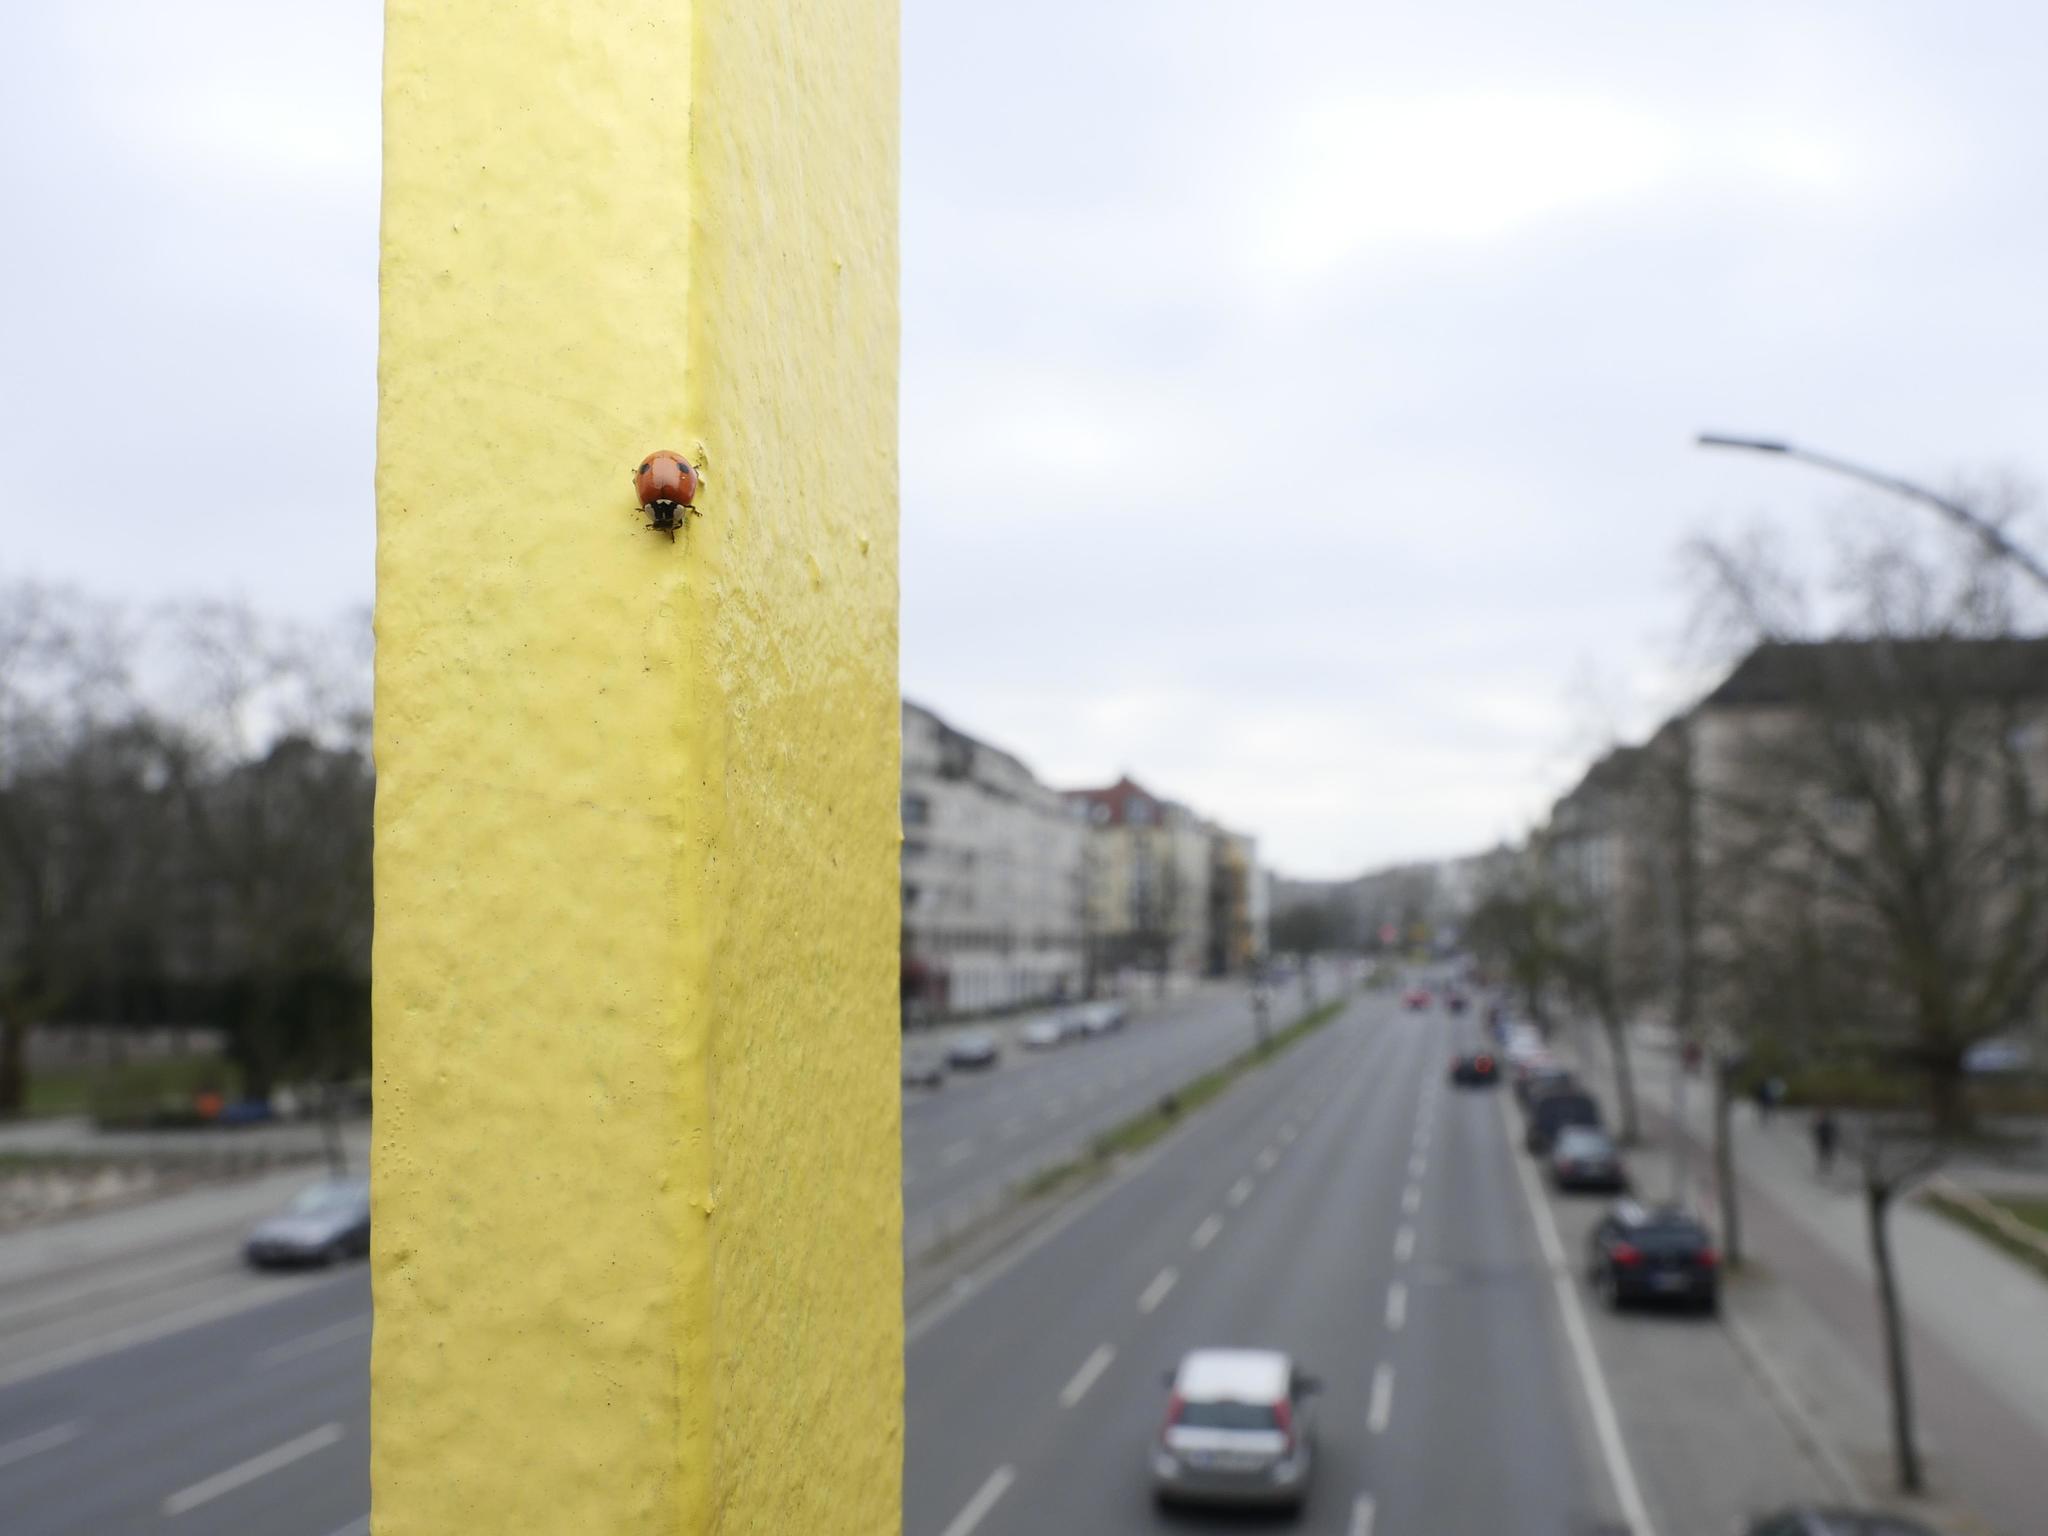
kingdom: Animalia
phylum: Arthropoda
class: Insecta
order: Coleoptera
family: Coccinellidae
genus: Adalia
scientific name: Adalia bipunctata
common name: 2-spot ladybird
